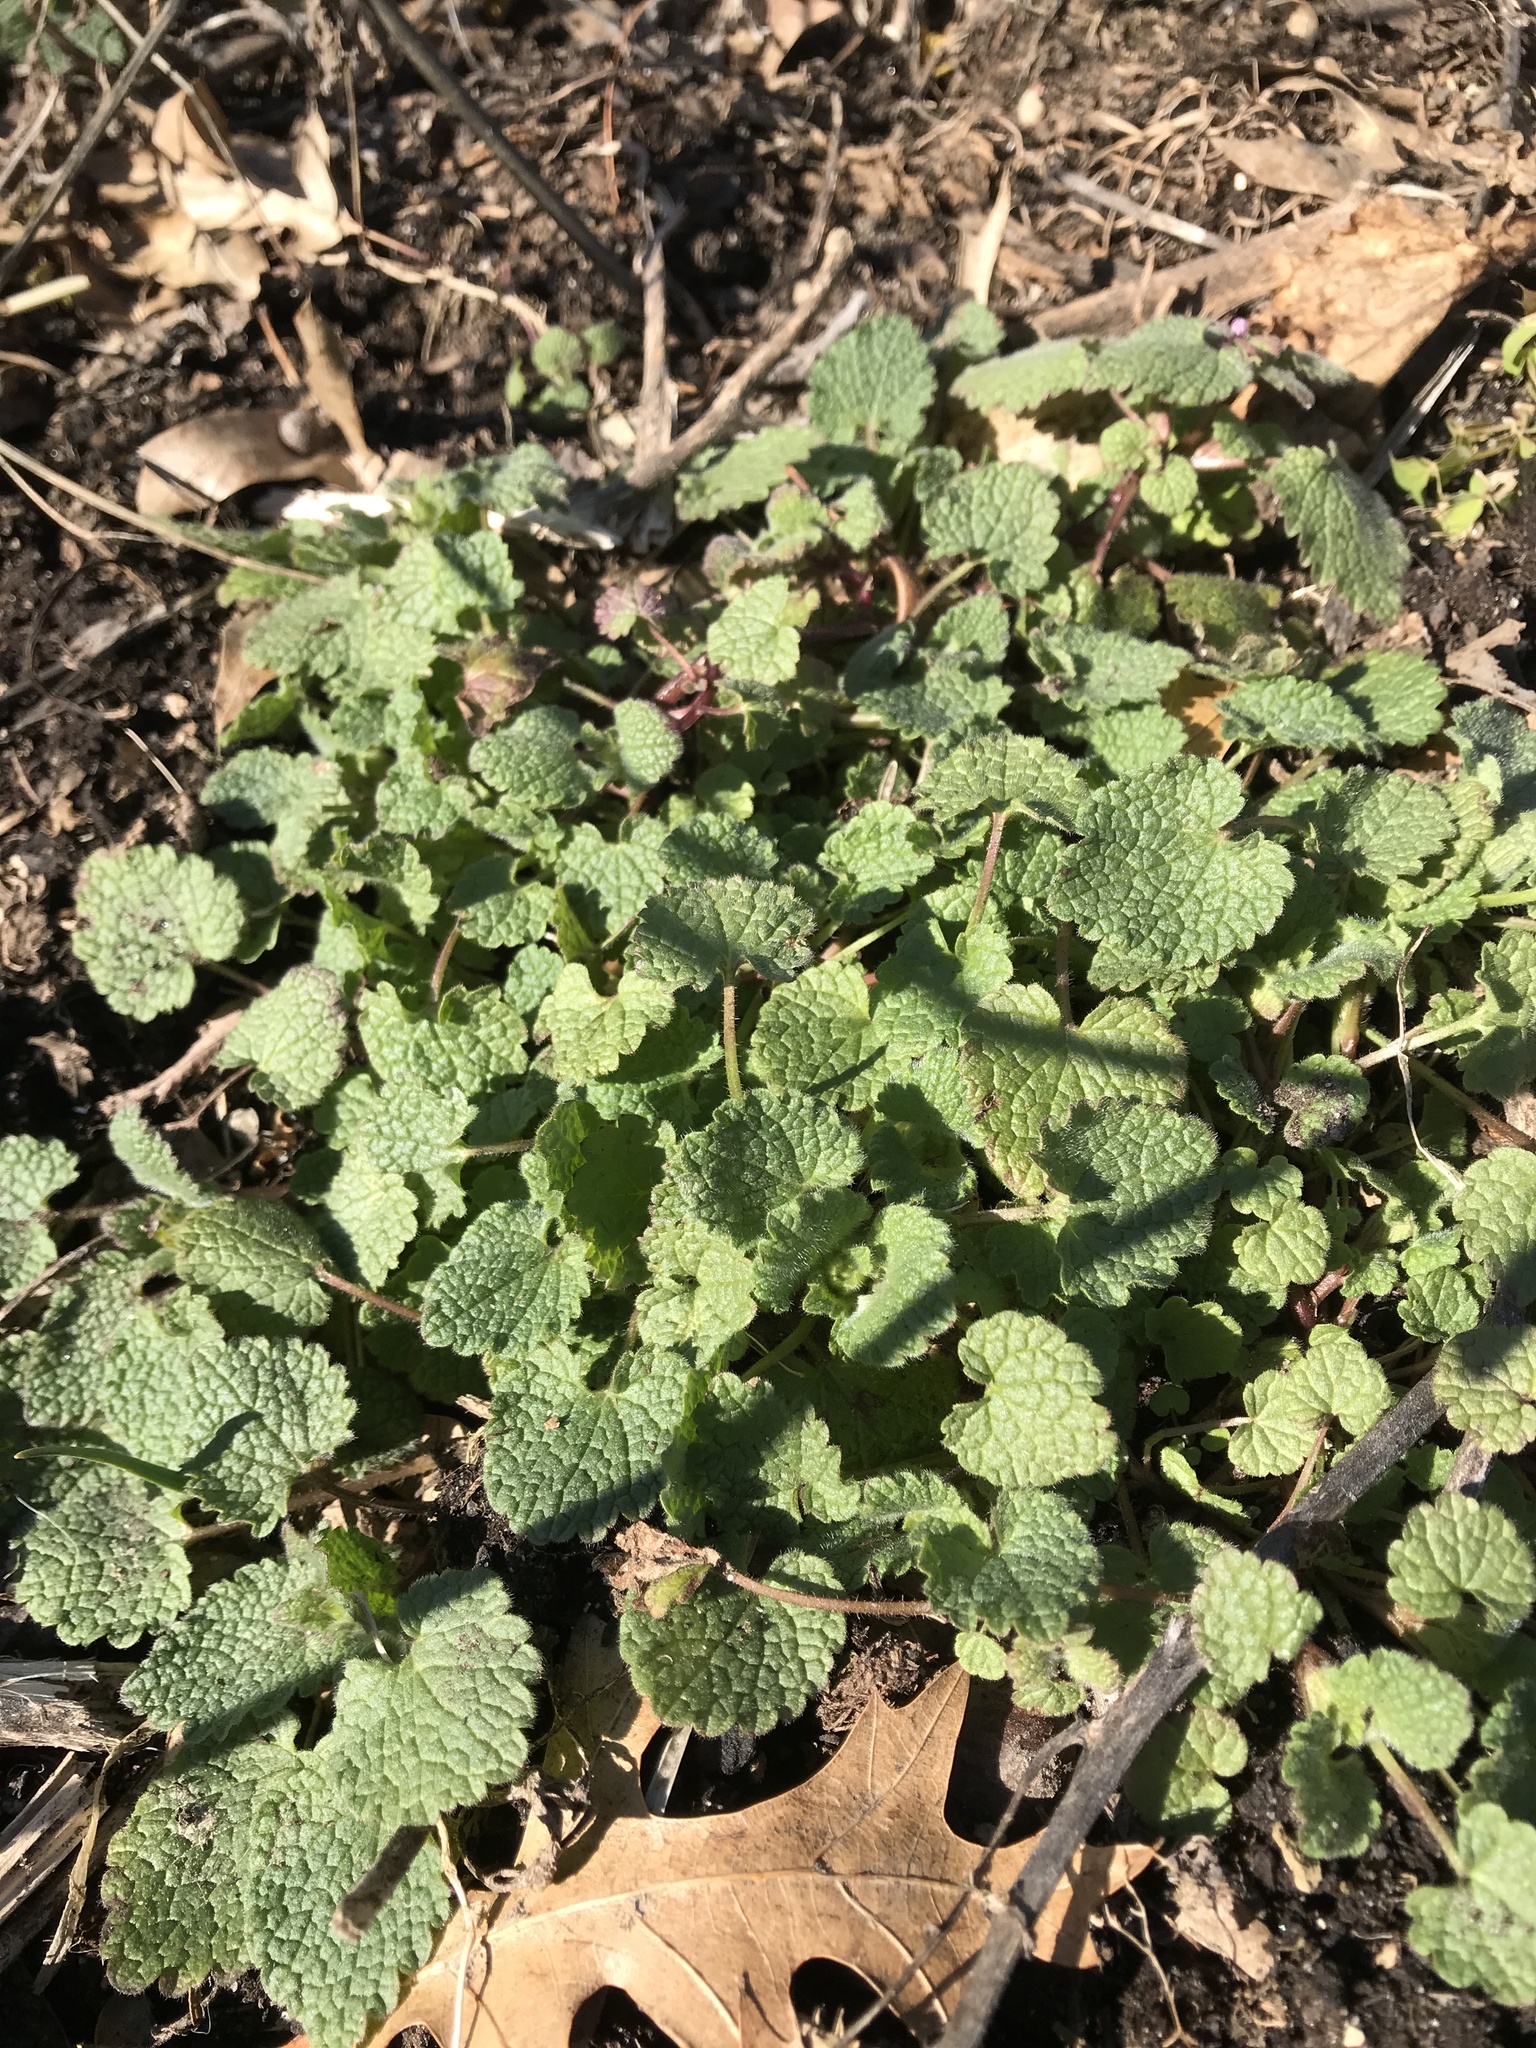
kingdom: Plantae
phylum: Tracheophyta
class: Magnoliopsida
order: Lamiales
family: Lamiaceae
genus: Lamium
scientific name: Lamium purpureum
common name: Red dead-nettle
